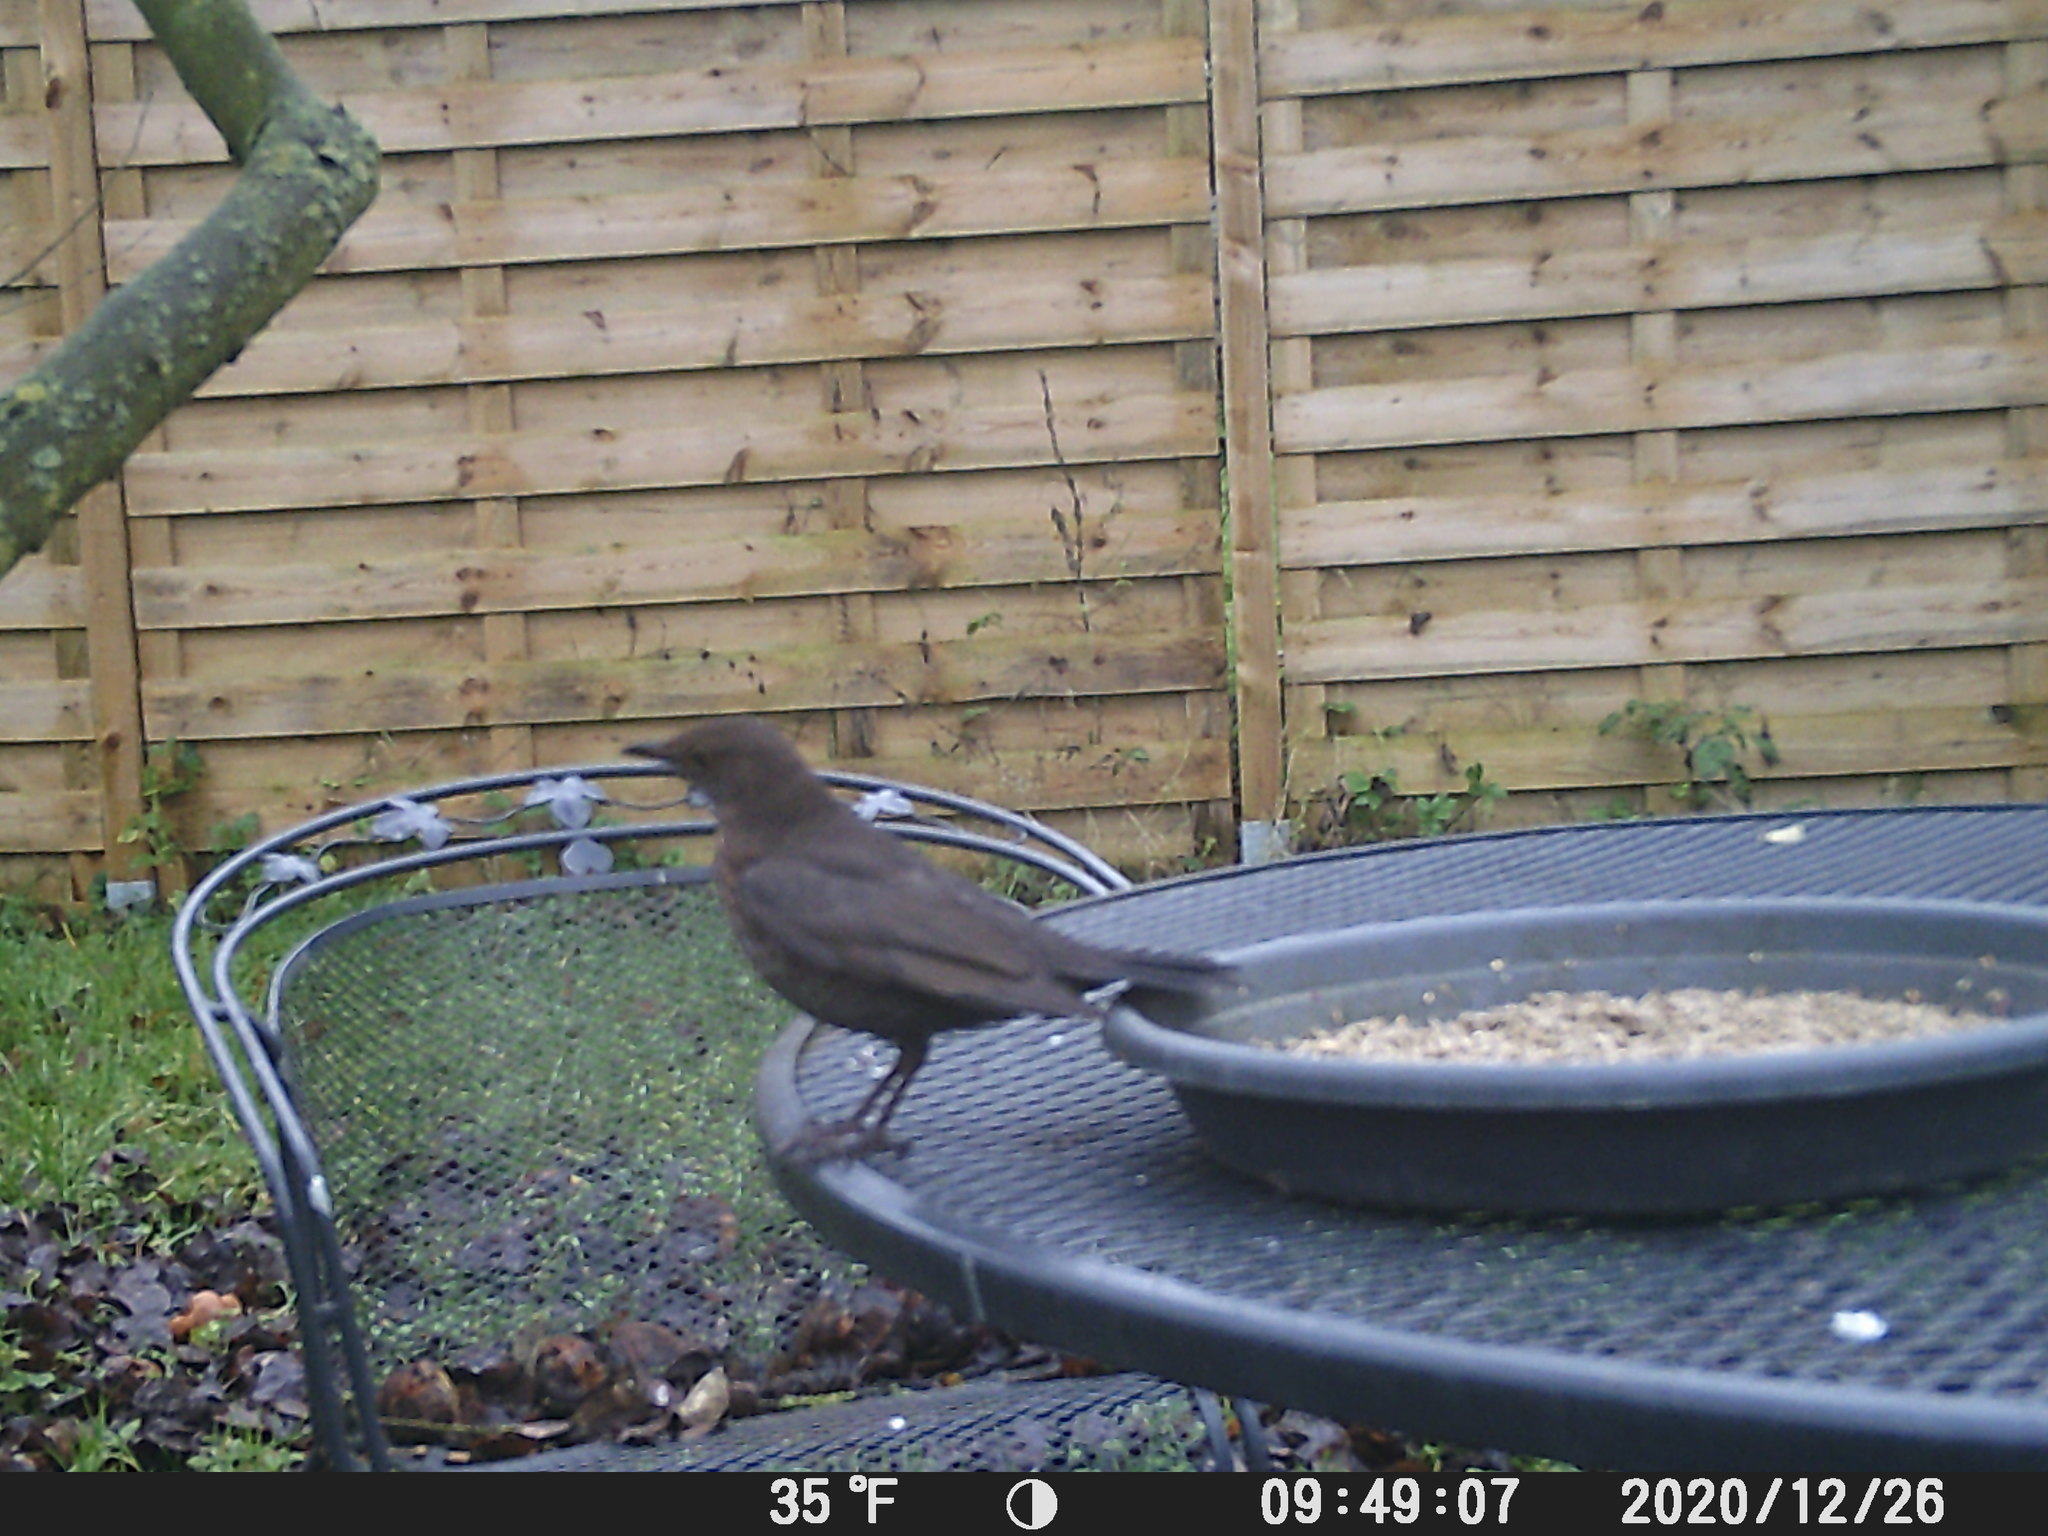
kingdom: Animalia
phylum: Chordata
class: Aves
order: Passeriformes
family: Turdidae
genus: Turdus
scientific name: Turdus merula
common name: Common blackbird
